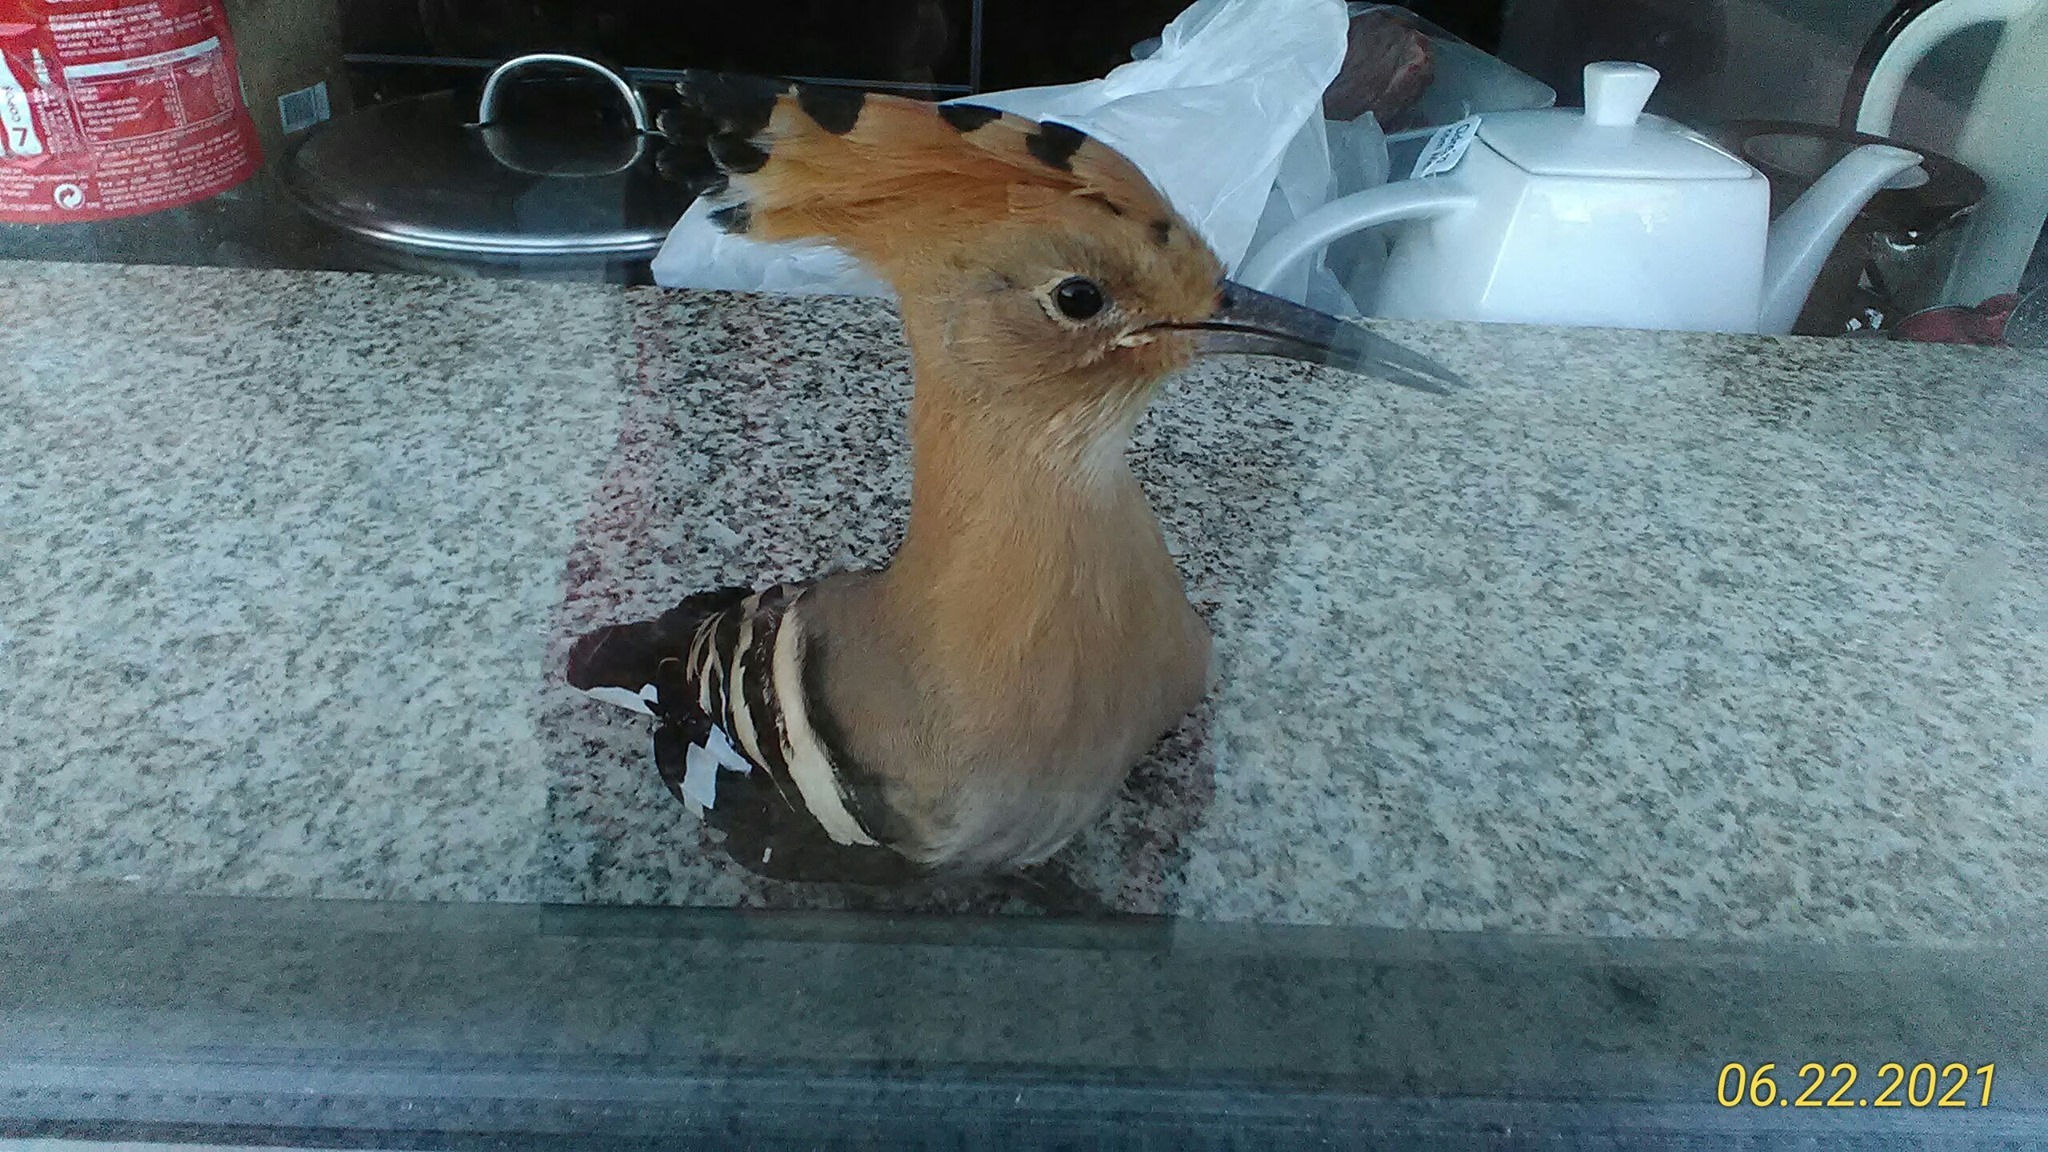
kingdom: Animalia
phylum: Chordata
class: Aves
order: Bucerotiformes
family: Upupidae
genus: Upupa
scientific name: Upupa epops
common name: Eurasian hoopoe
